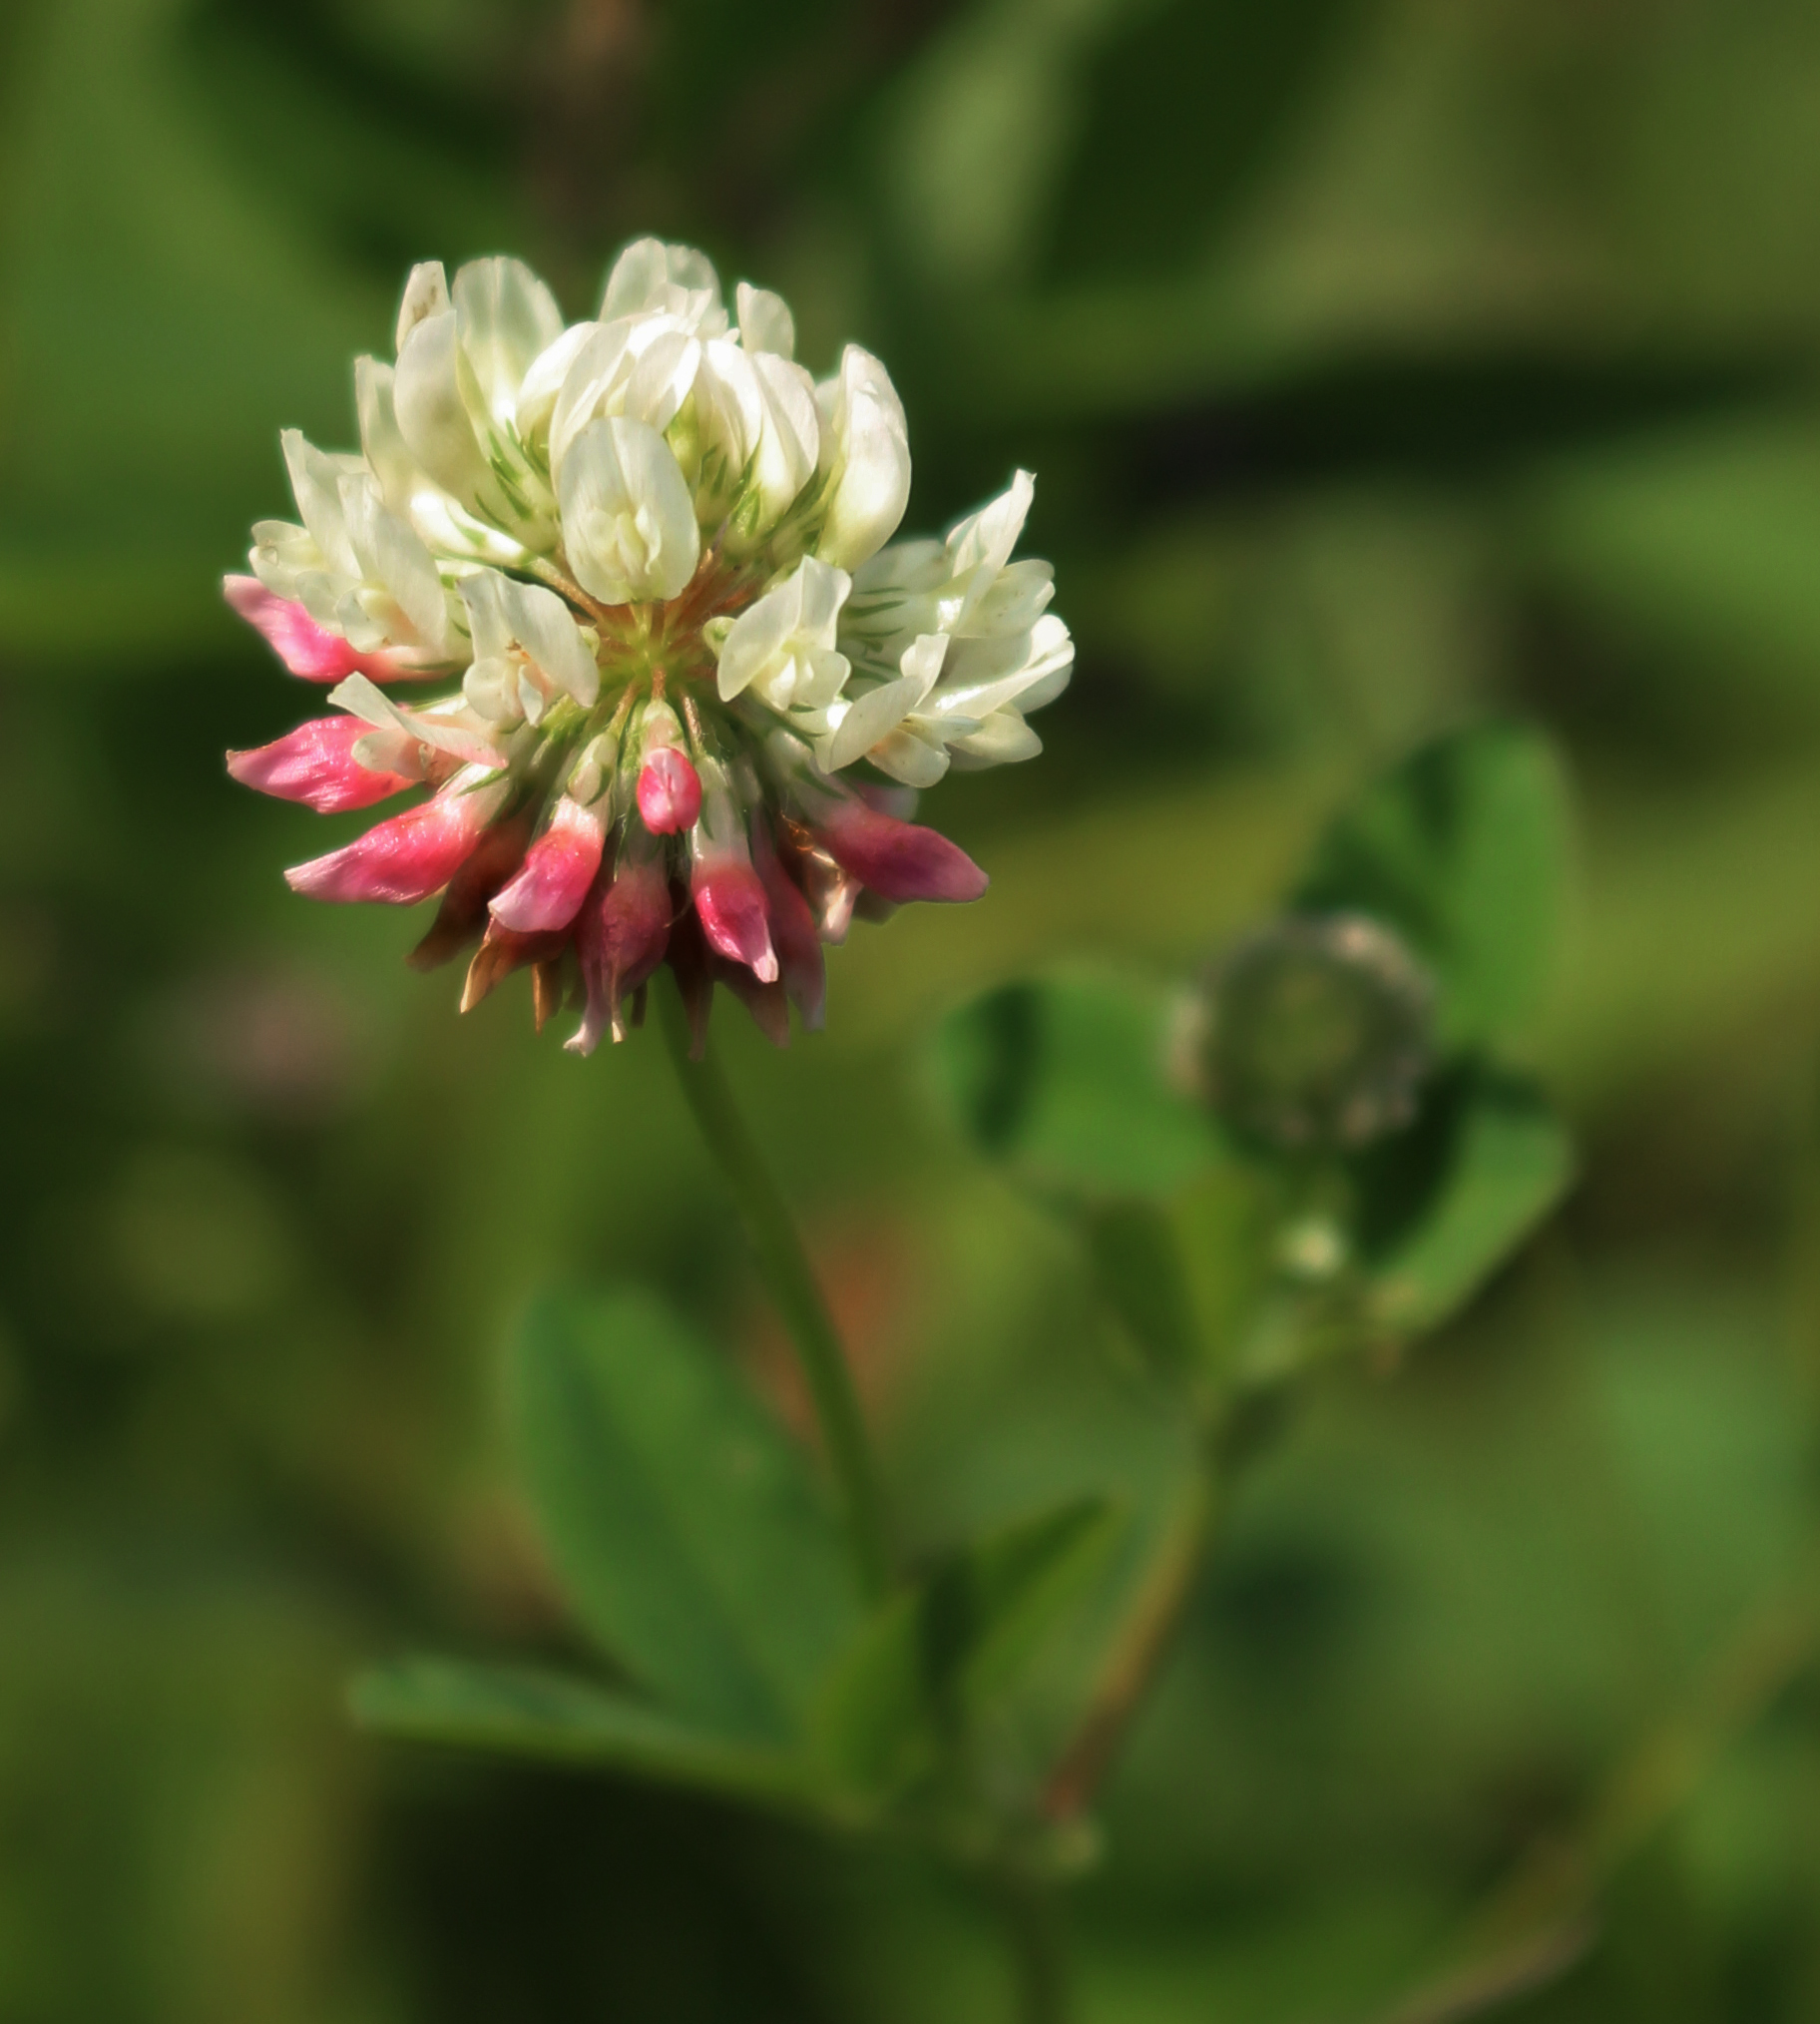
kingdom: Plantae
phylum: Tracheophyta
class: Magnoliopsida
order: Fabales
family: Fabaceae
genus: Trifolium
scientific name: Trifolium hybridum
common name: Alsike clover
